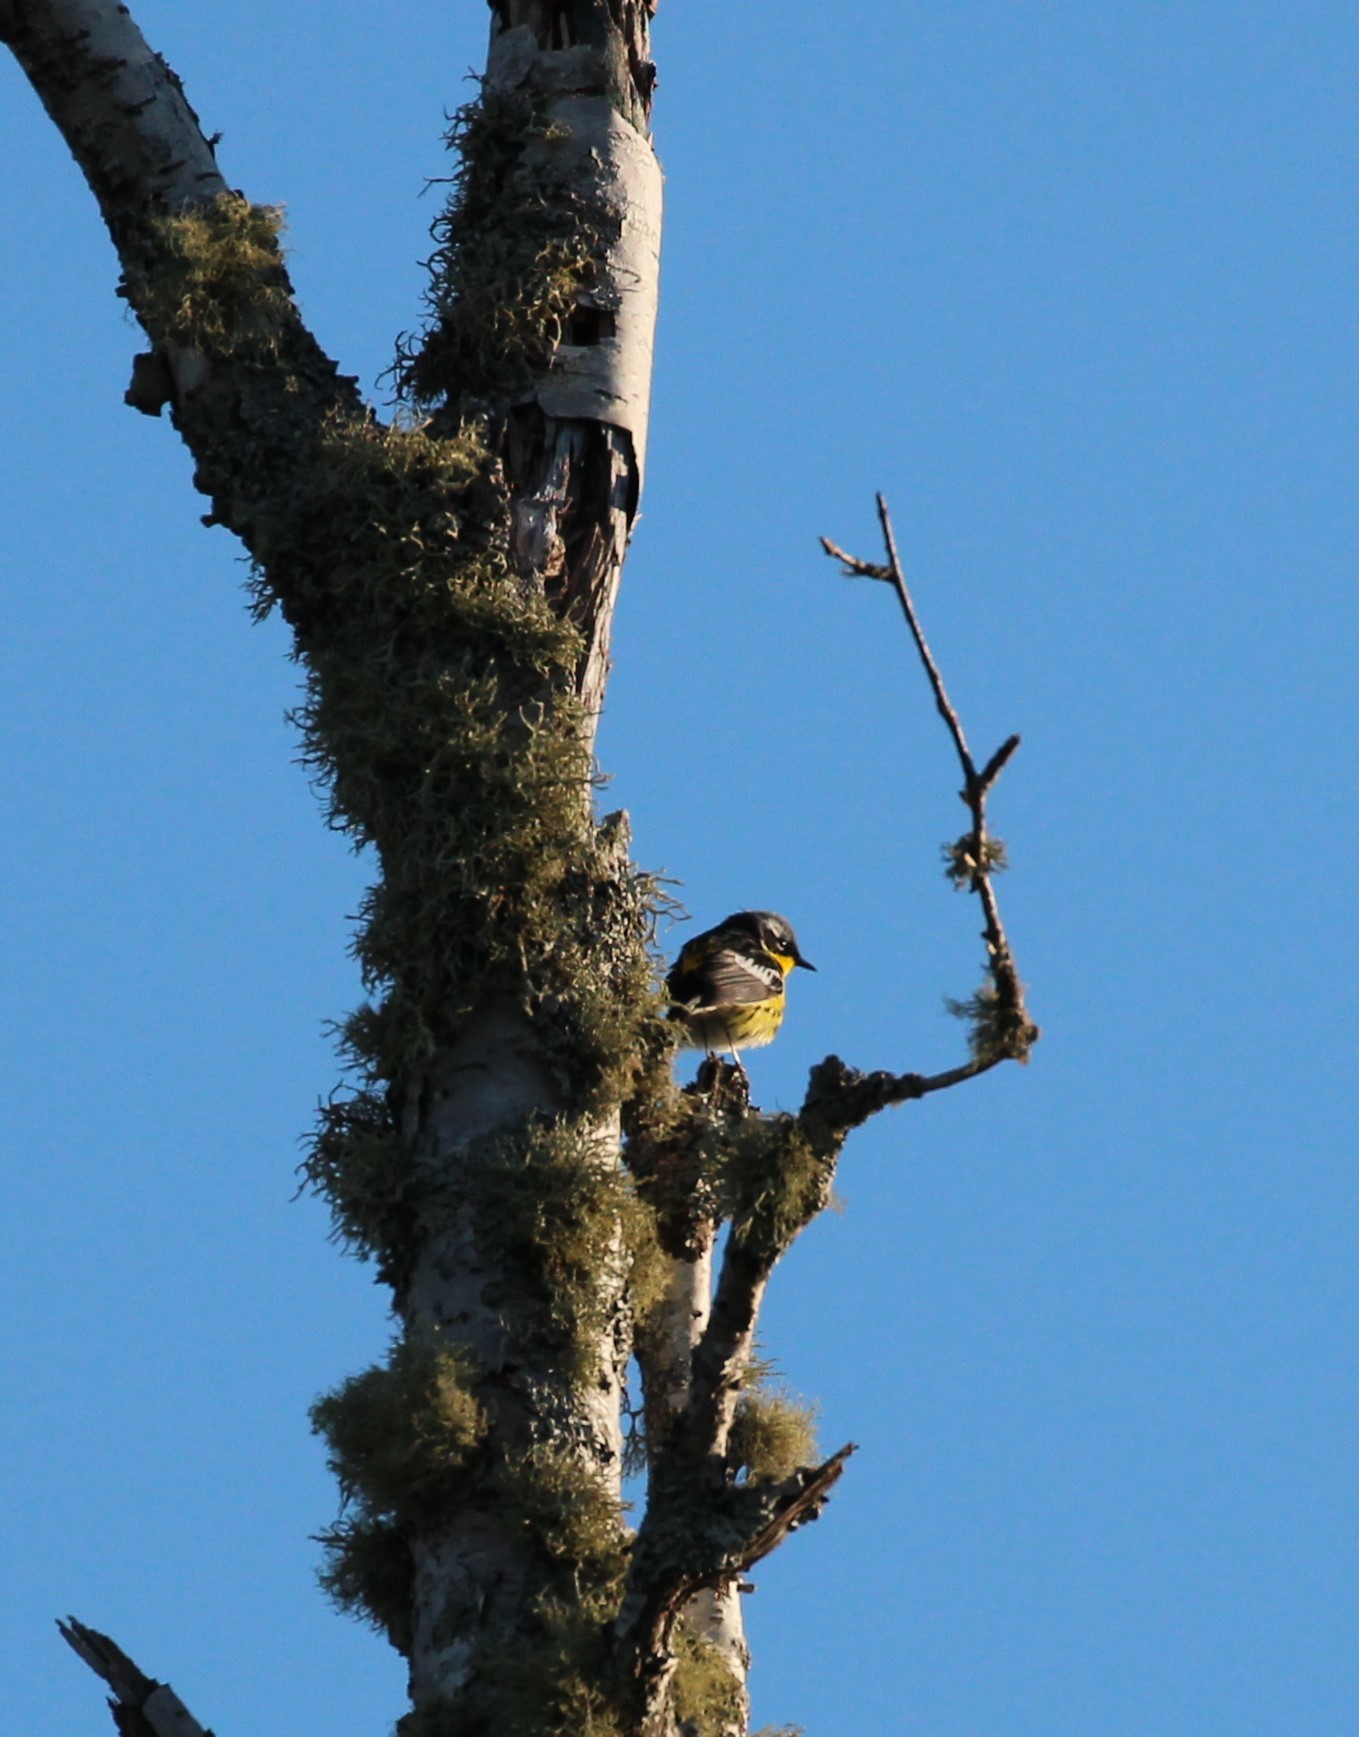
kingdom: Animalia
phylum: Chordata
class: Aves
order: Passeriformes
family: Parulidae
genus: Setophaga
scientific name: Setophaga magnolia
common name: Magnolia warbler
